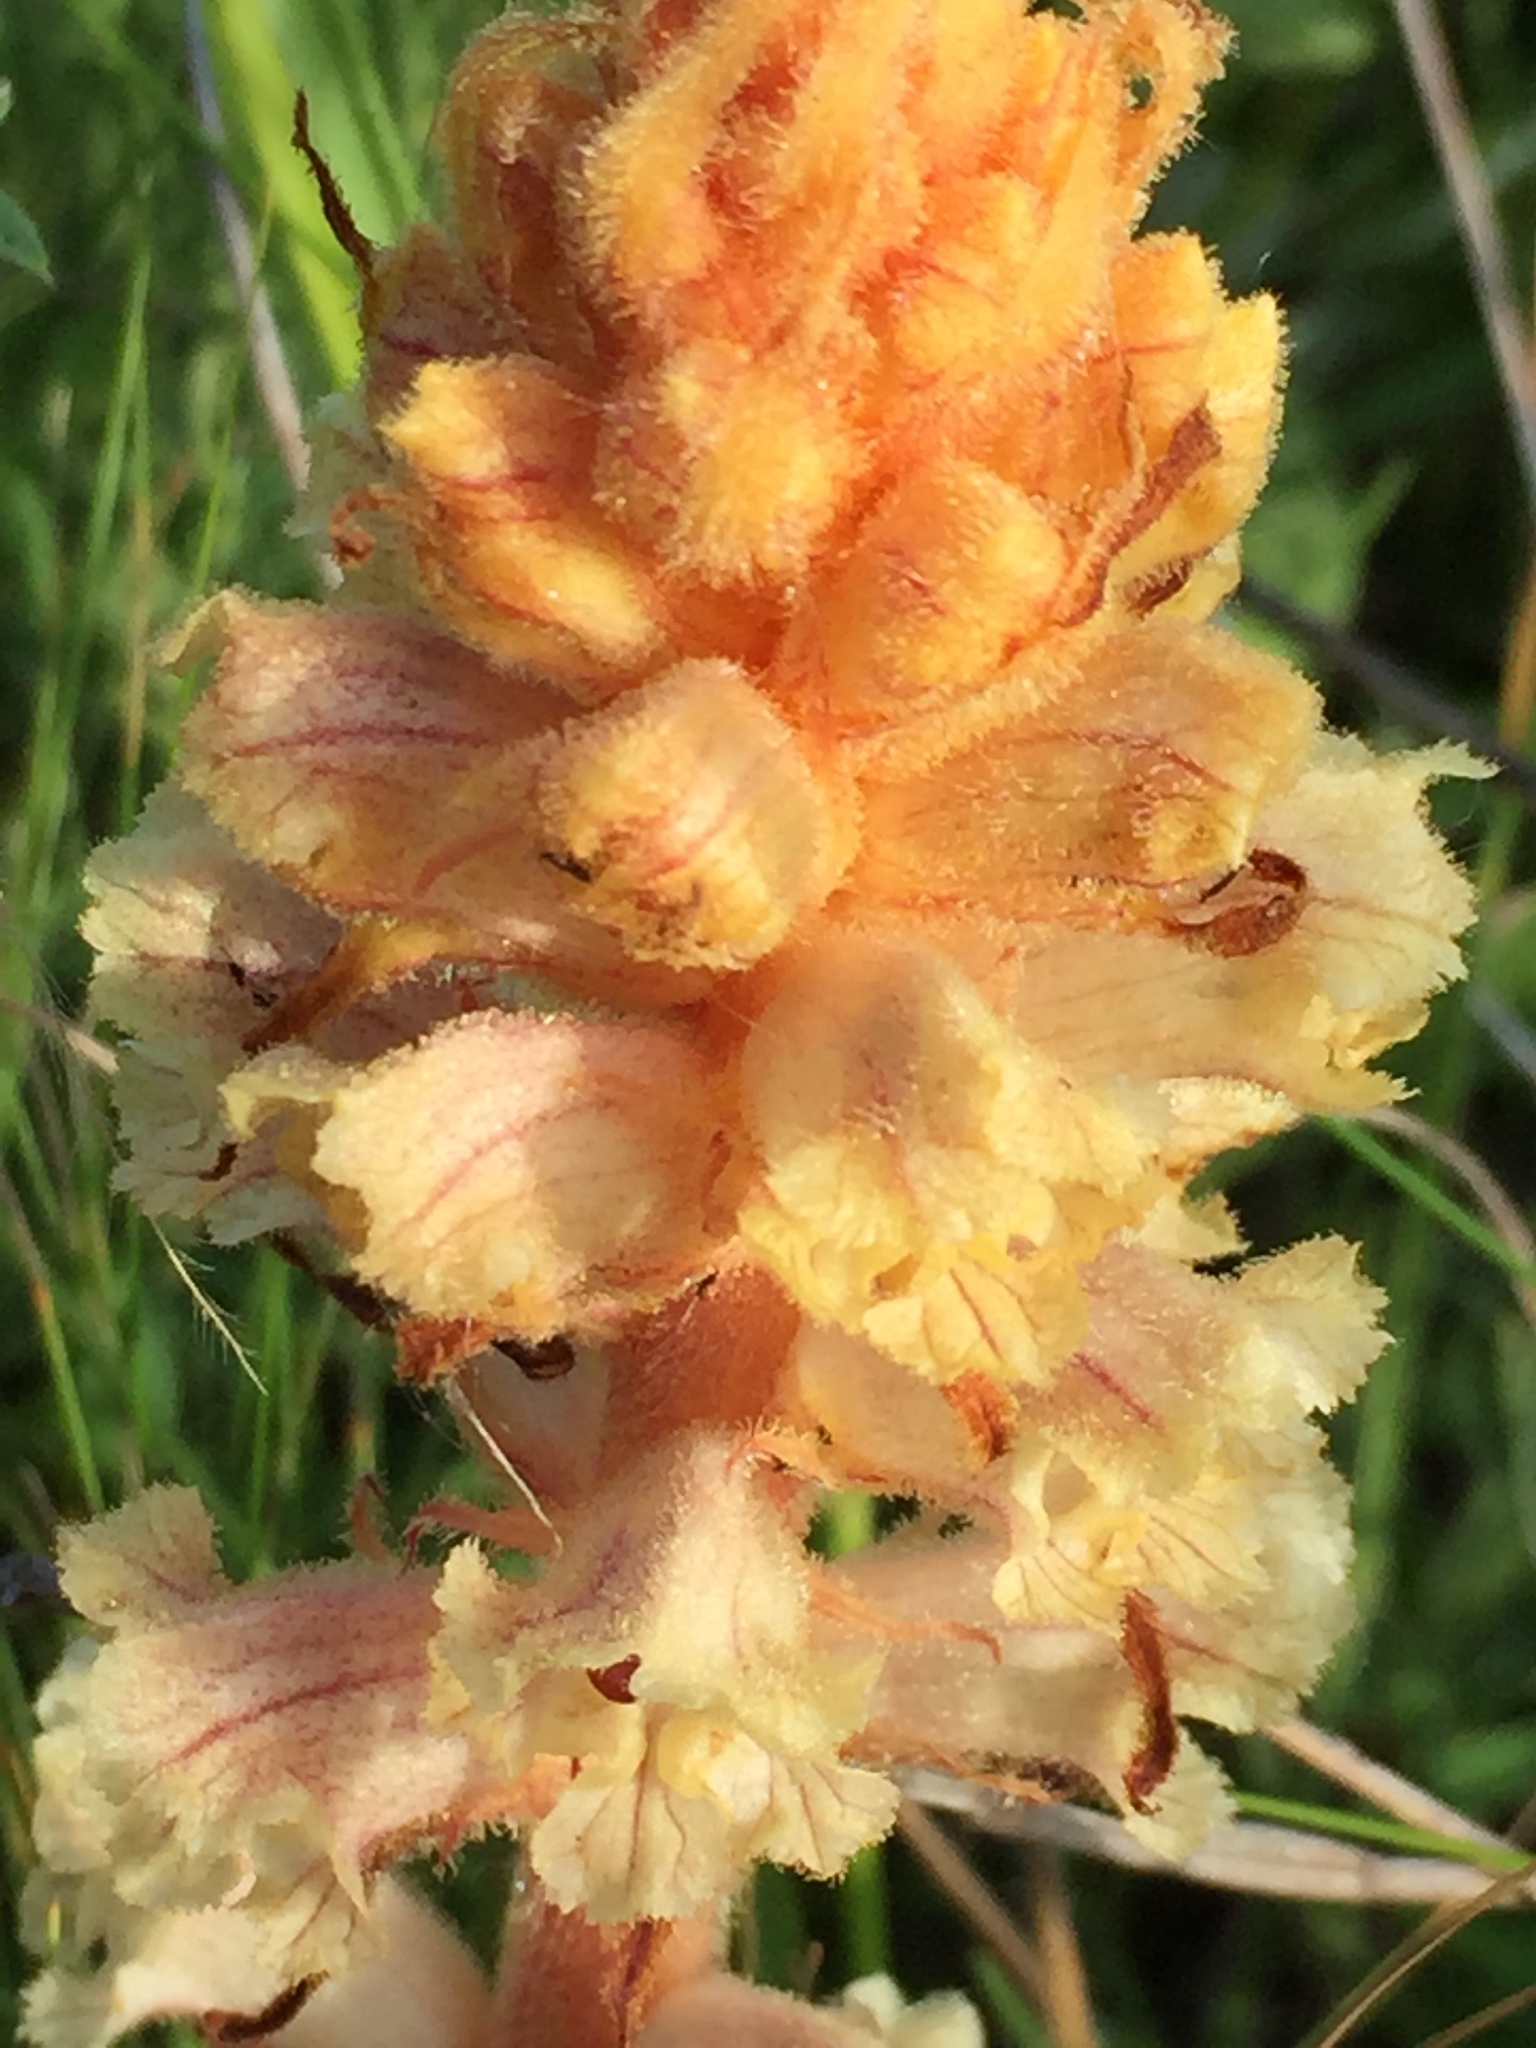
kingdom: Plantae
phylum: Tracheophyta
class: Magnoliopsida
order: Lamiales
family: Orobanchaceae
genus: Orobanche
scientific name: Orobanche alba
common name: Thyme broomrape
